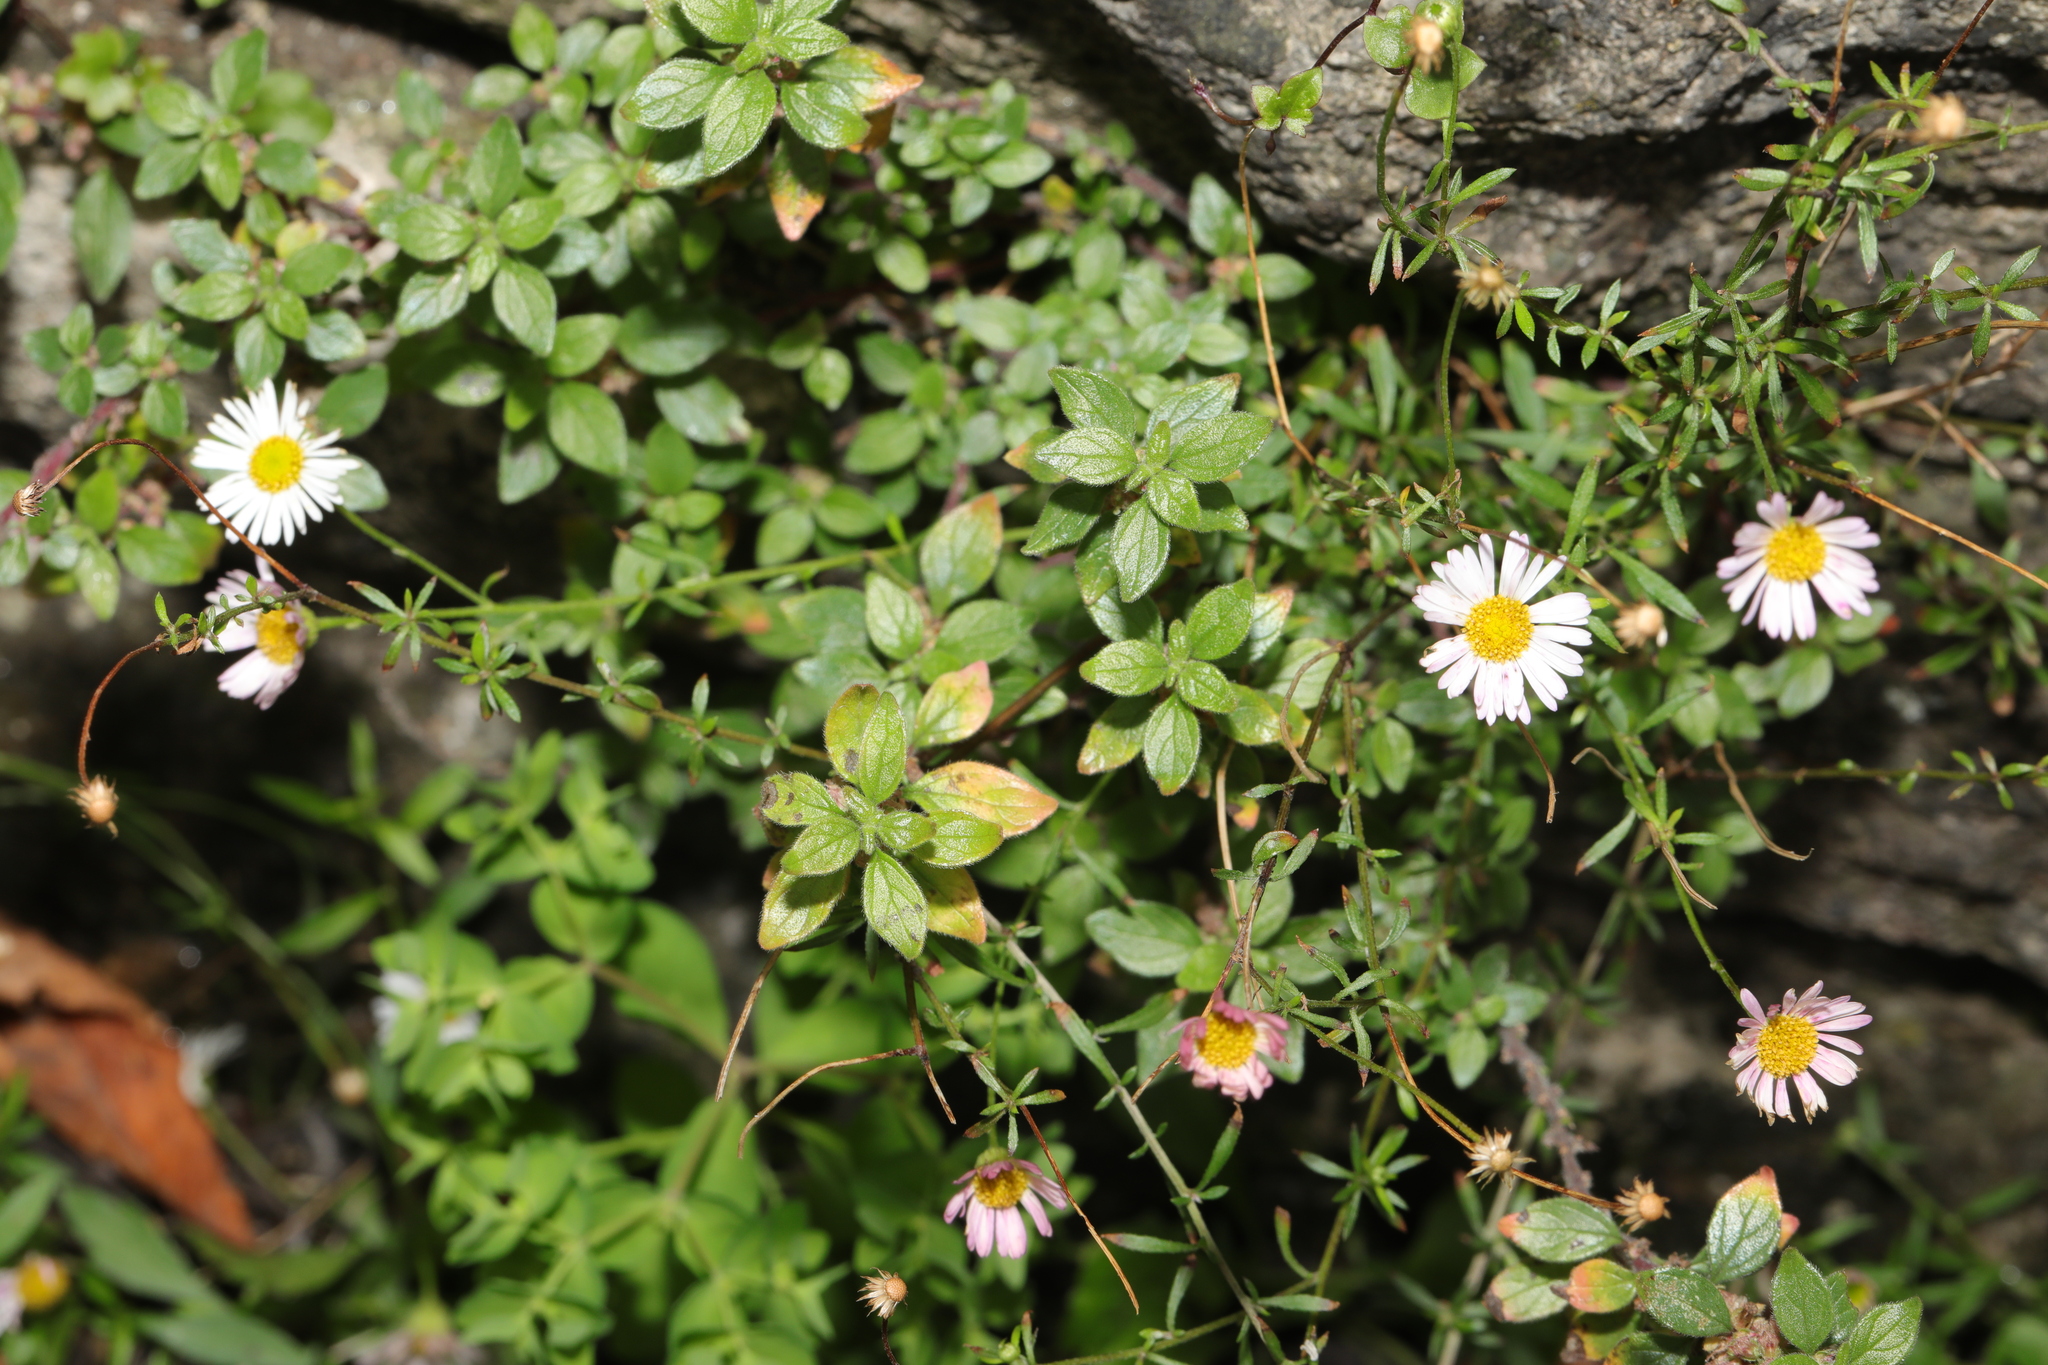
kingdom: Plantae
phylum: Tracheophyta
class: Magnoliopsida
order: Asterales
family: Asteraceae
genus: Erigeron
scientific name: Erigeron karvinskianus
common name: Mexican fleabane
